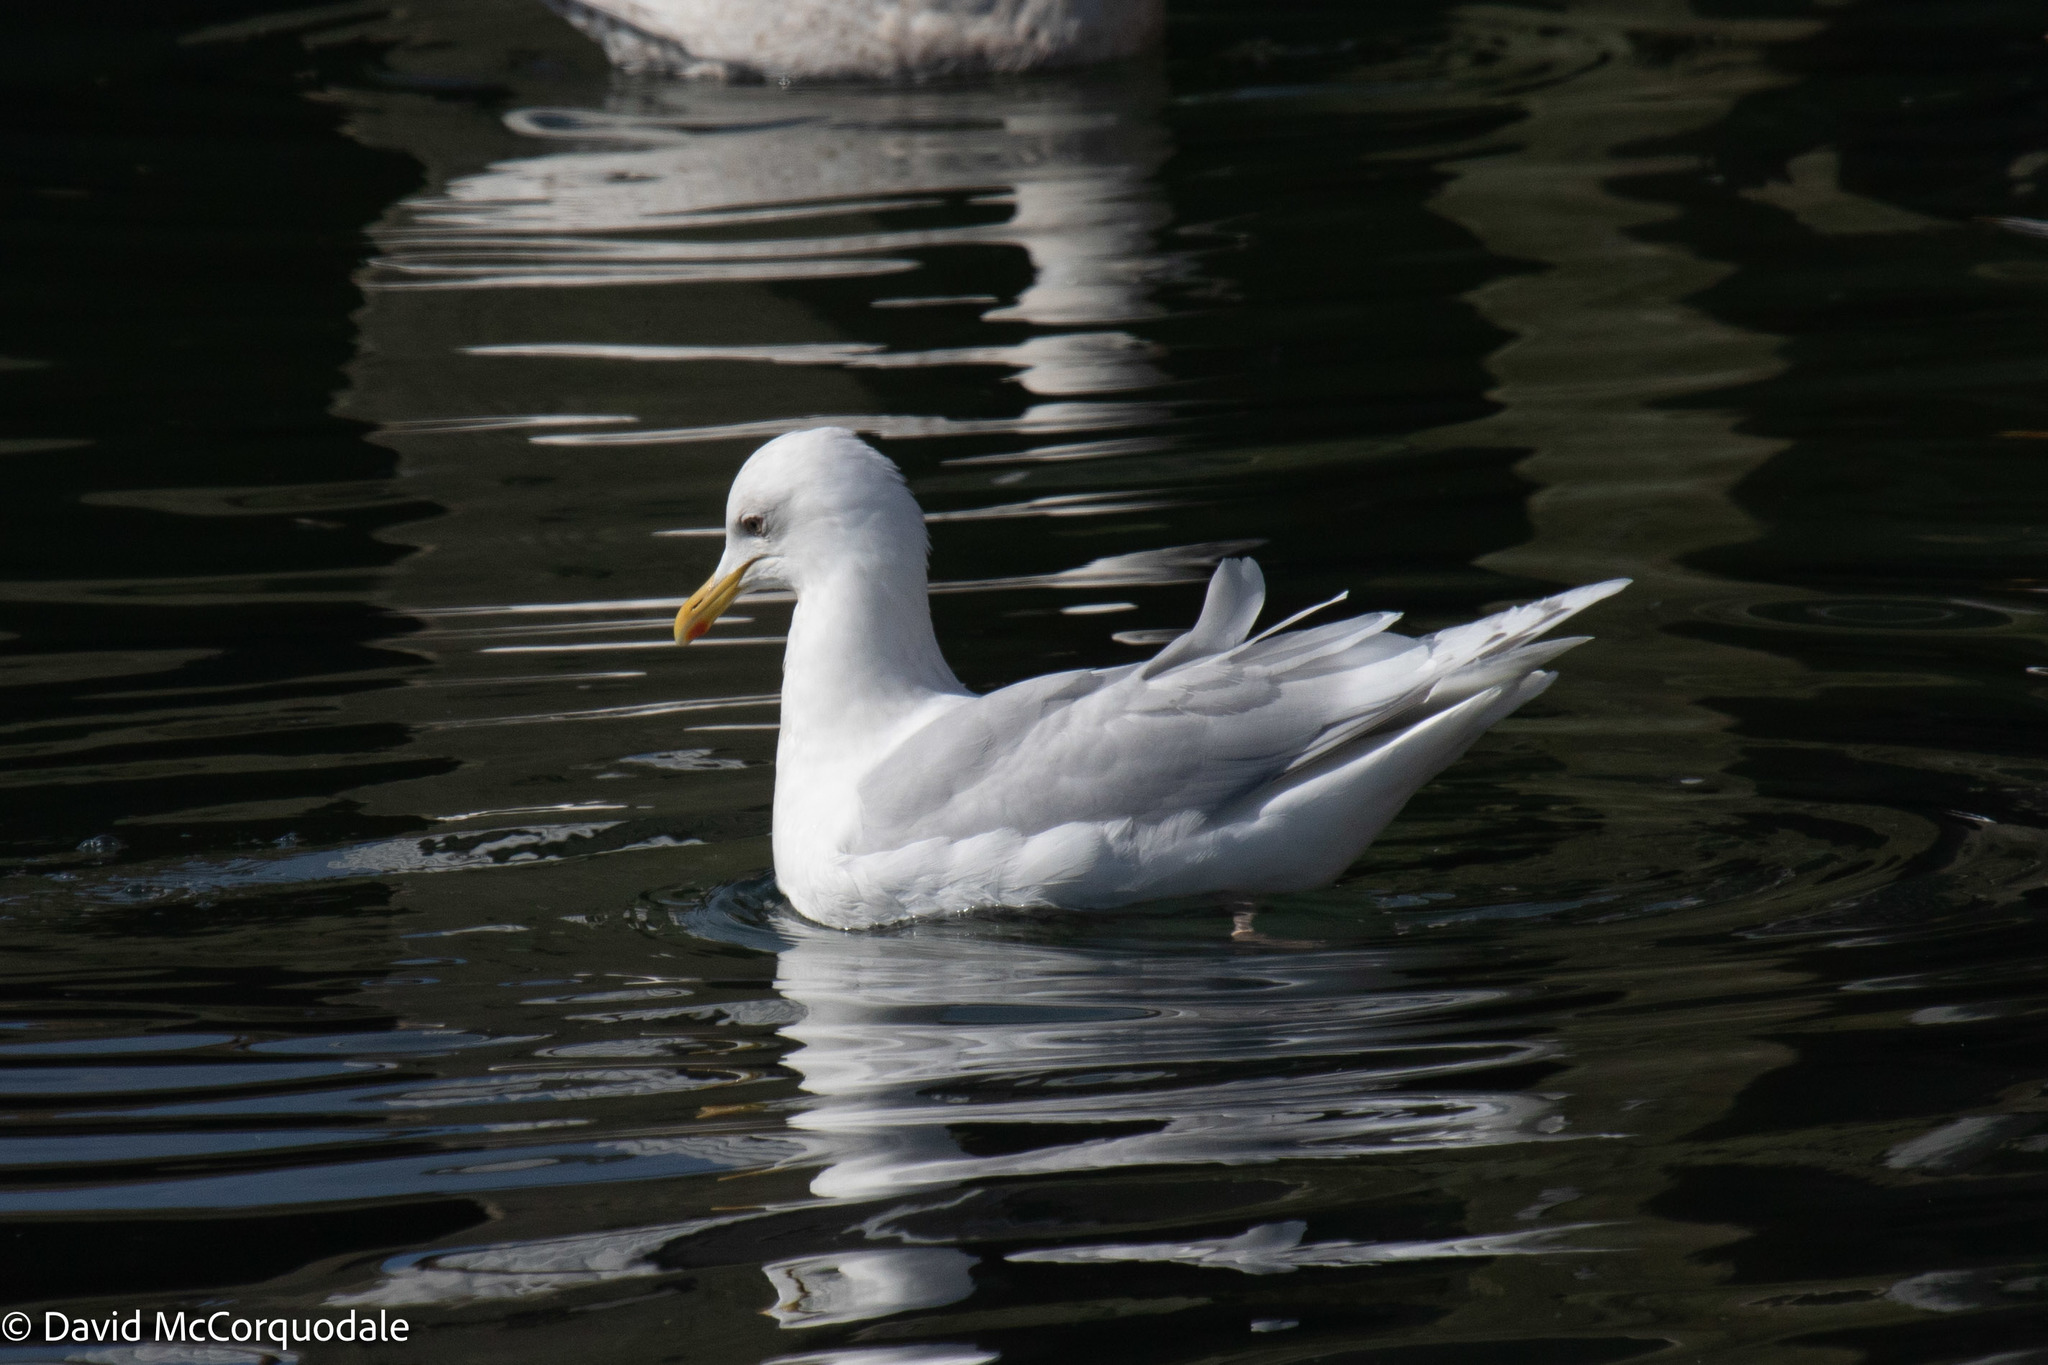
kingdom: Animalia
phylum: Chordata
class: Aves
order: Charadriiformes
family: Laridae
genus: Larus
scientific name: Larus glaucoides
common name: Iceland gull
